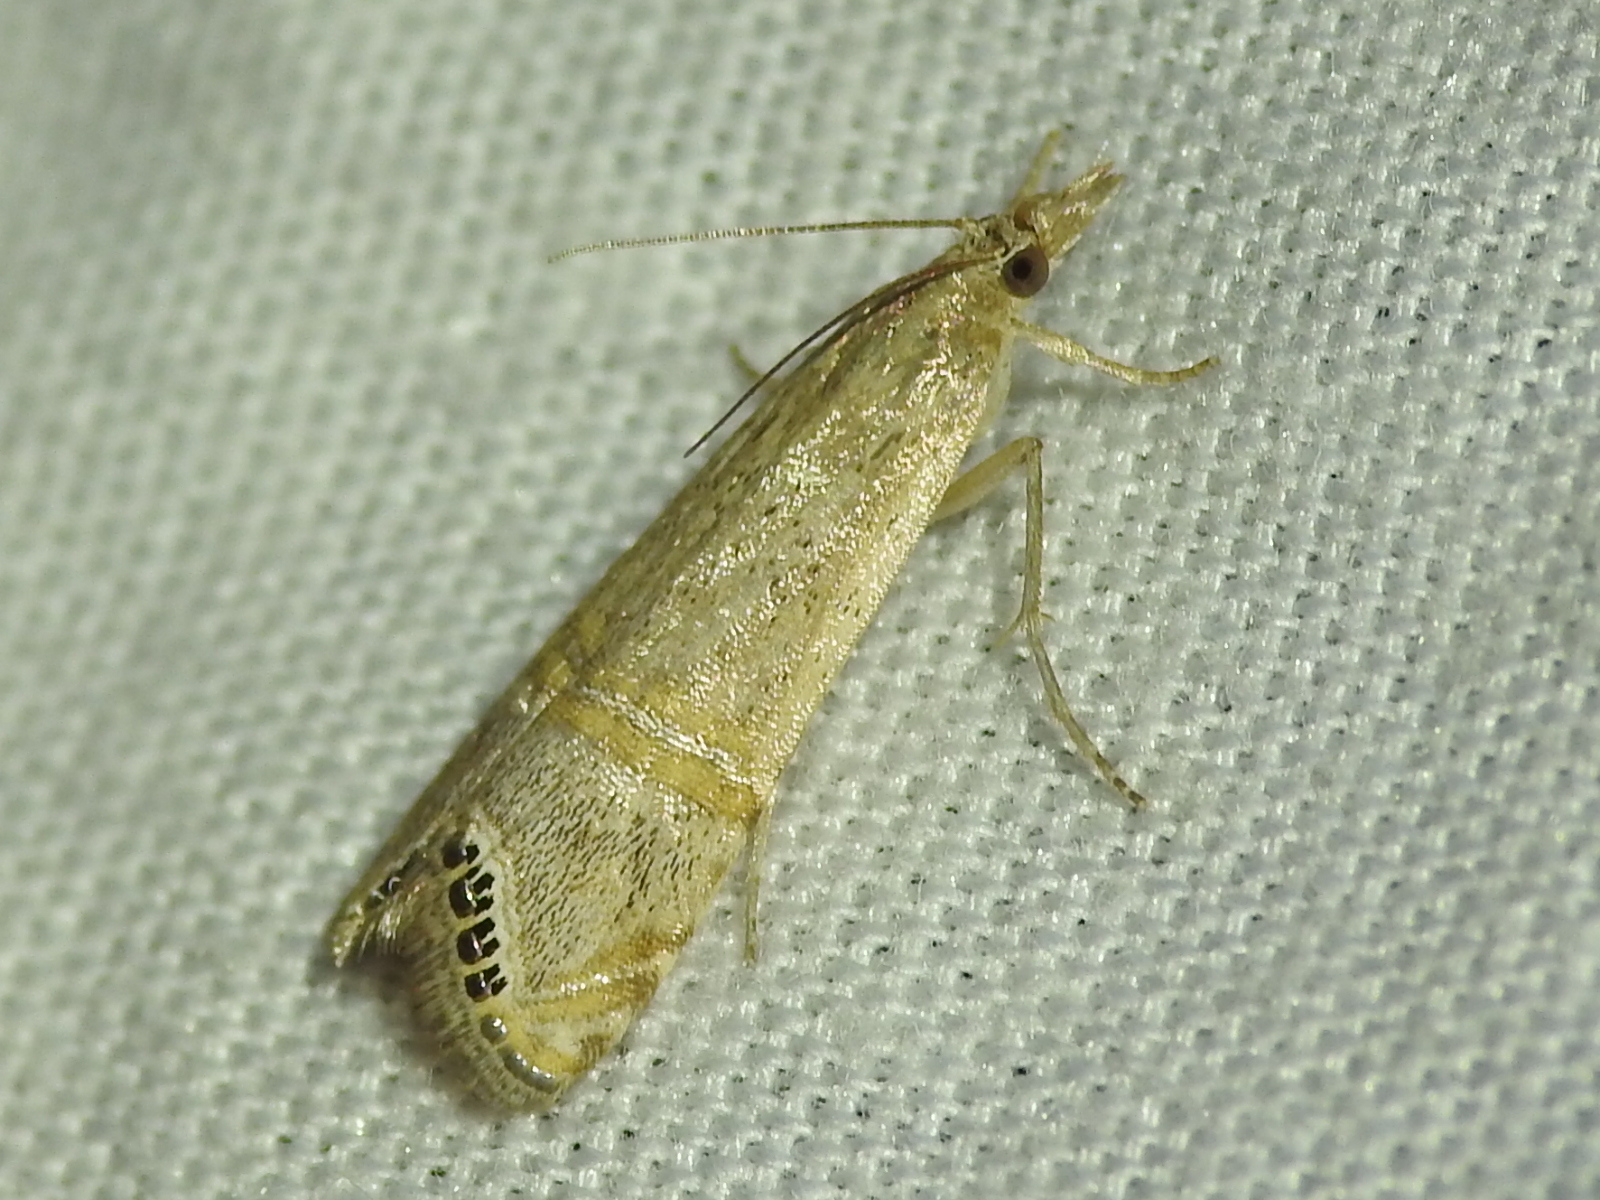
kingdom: Animalia
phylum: Arthropoda
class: Insecta
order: Lepidoptera
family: Crambidae
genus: Euchromius
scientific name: Euchromius ocellea
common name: Necklace veneer moth
